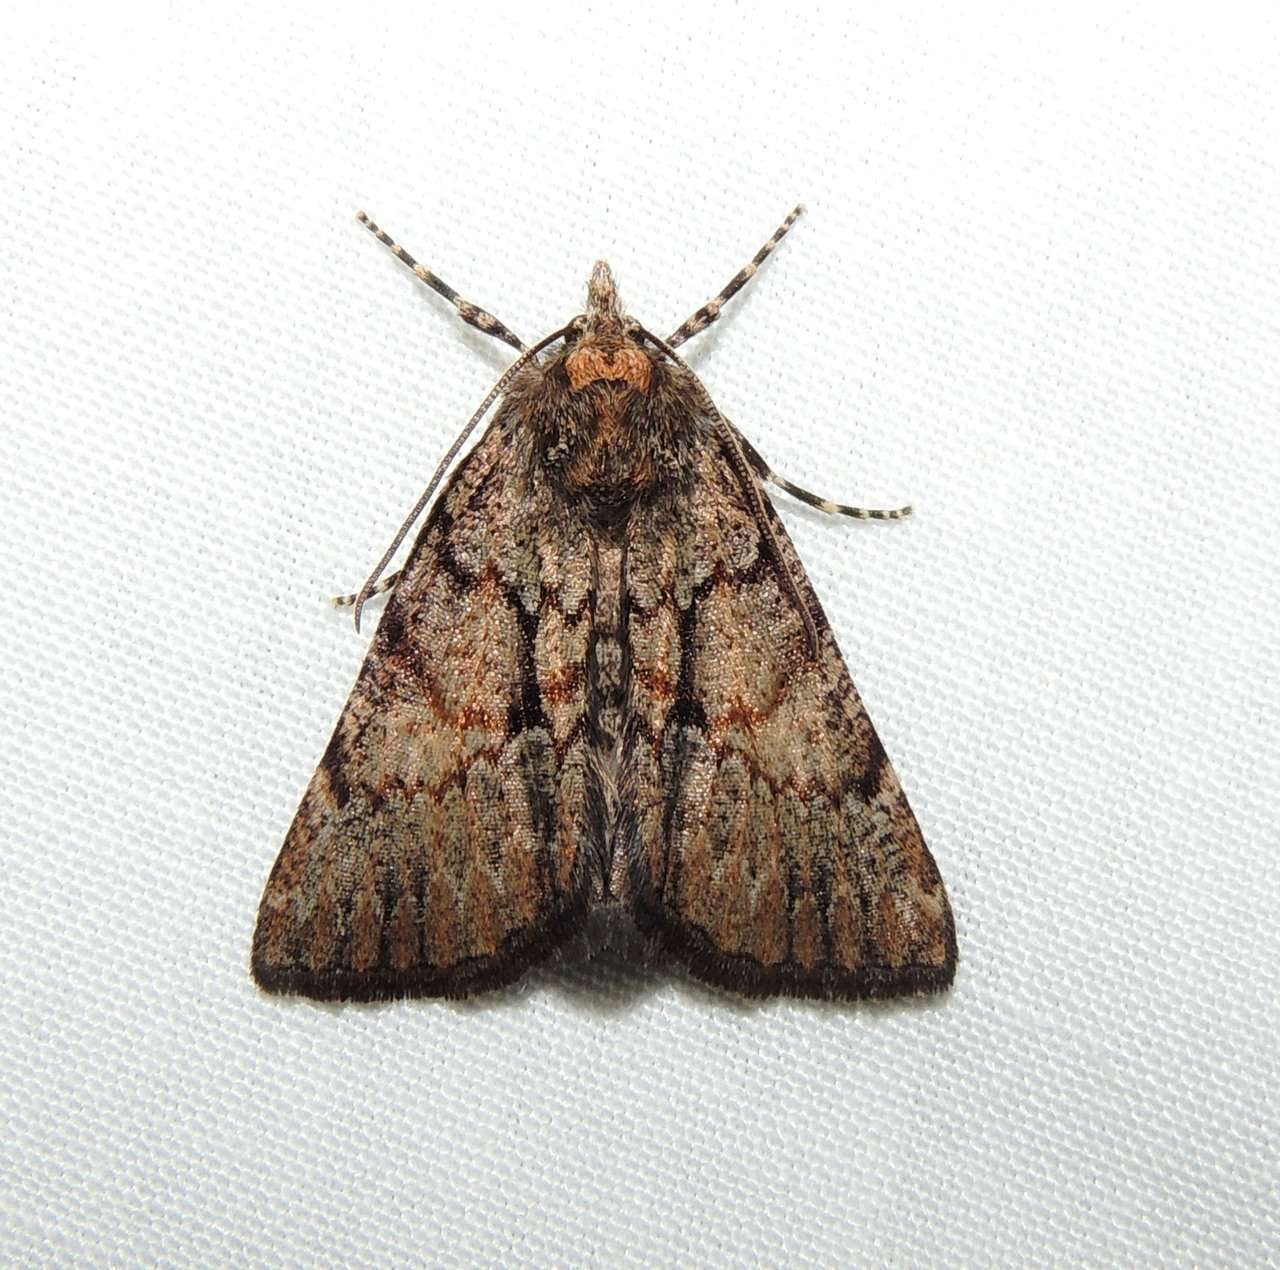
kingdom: Animalia
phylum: Arthropoda
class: Insecta
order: Lepidoptera
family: Geometridae
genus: Smyriodes
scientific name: Smyriodes
